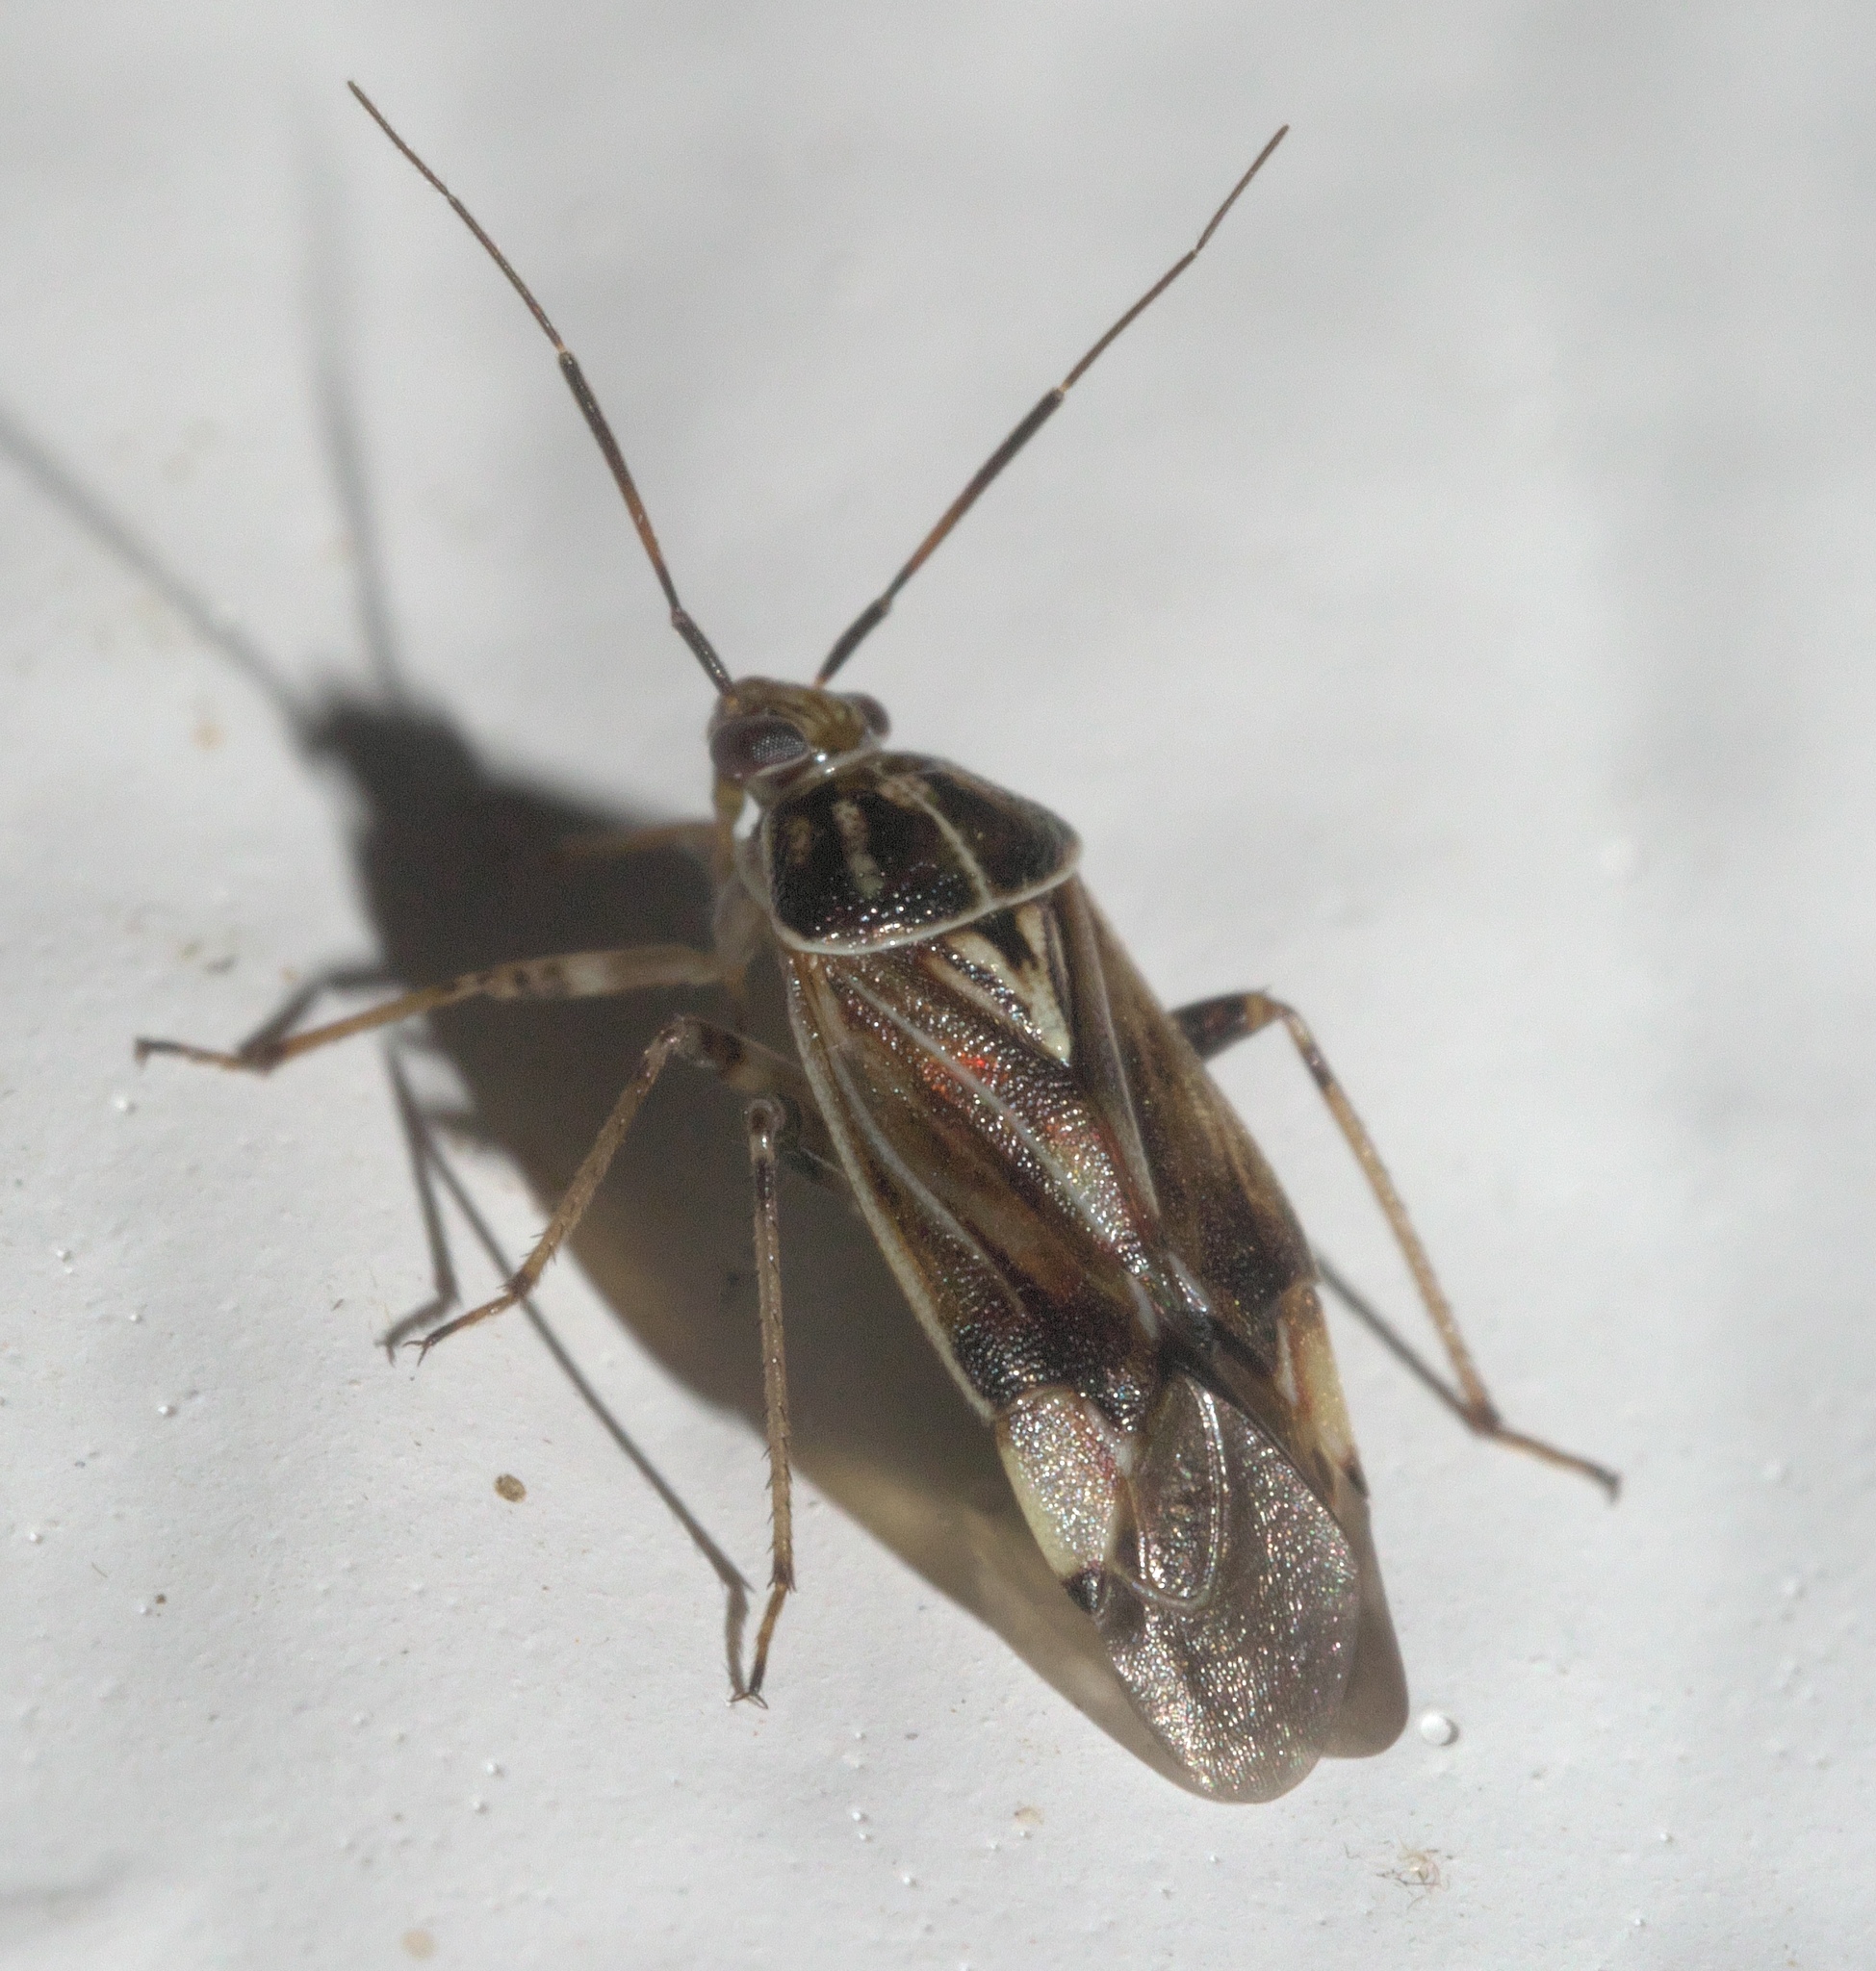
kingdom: Animalia
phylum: Arthropoda
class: Insecta
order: Hemiptera
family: Miridae
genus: Lygus
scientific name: Lygus lineolaris
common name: North american tarnished plant bug
